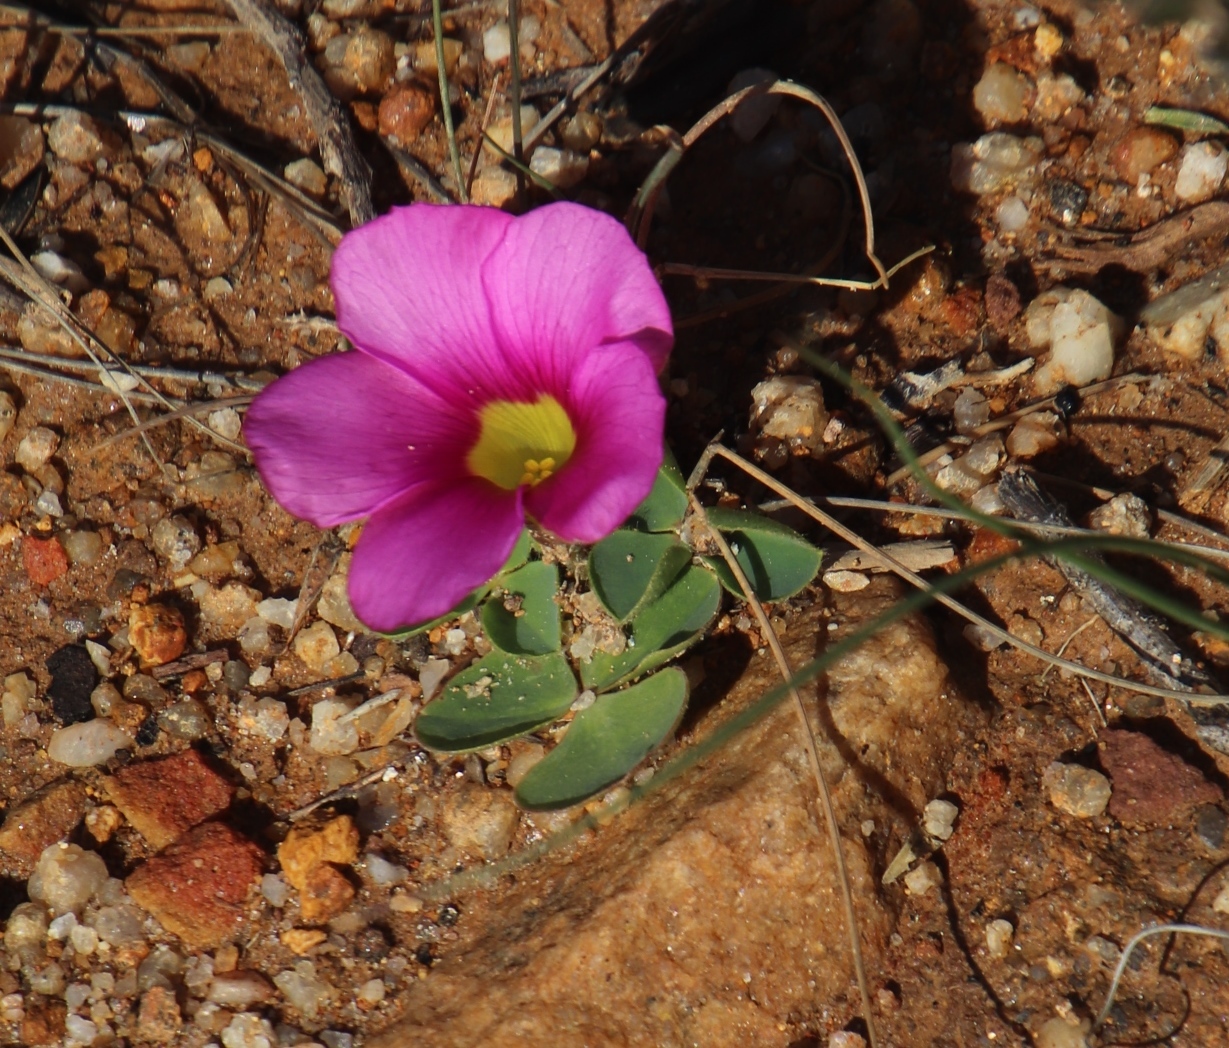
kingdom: Plantae
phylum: Tracheophyta
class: Magnoliopsida
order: Oxalidales
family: Oxalidaceae
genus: Oxalis
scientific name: Oxalis purpurea
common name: Purple woodsorrel
